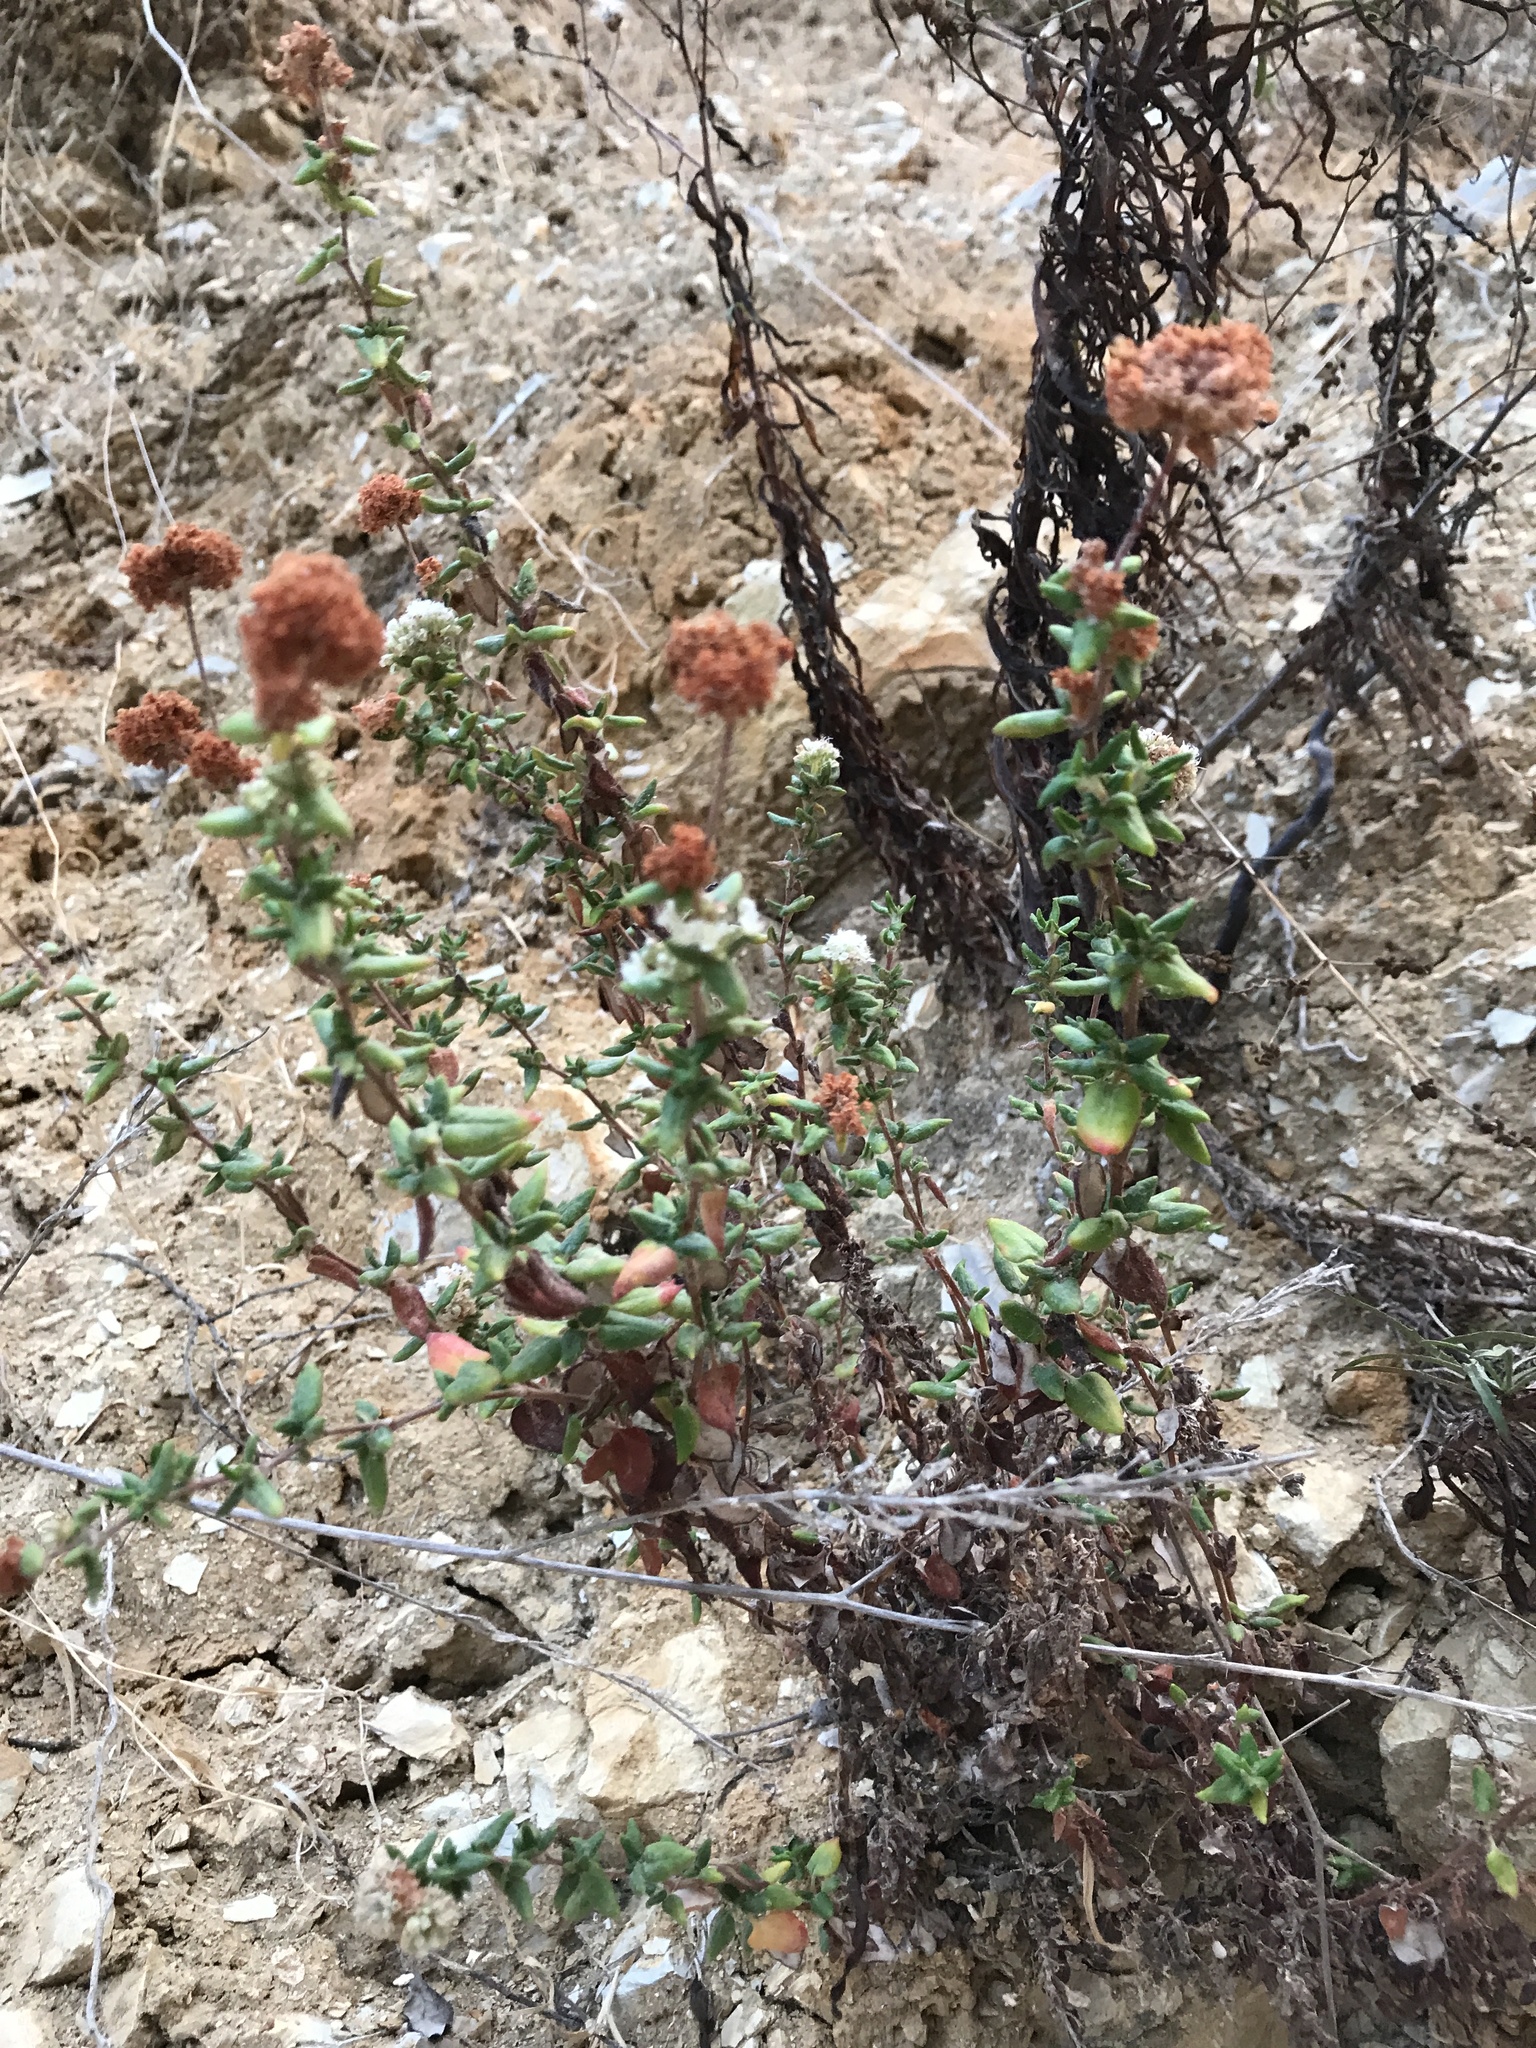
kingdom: Plantae
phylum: Tracheophyta
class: Magnoliopsida
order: Caryophyllales
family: Polygonaceae
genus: Eriogonum
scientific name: Eriogonum parvifolium
